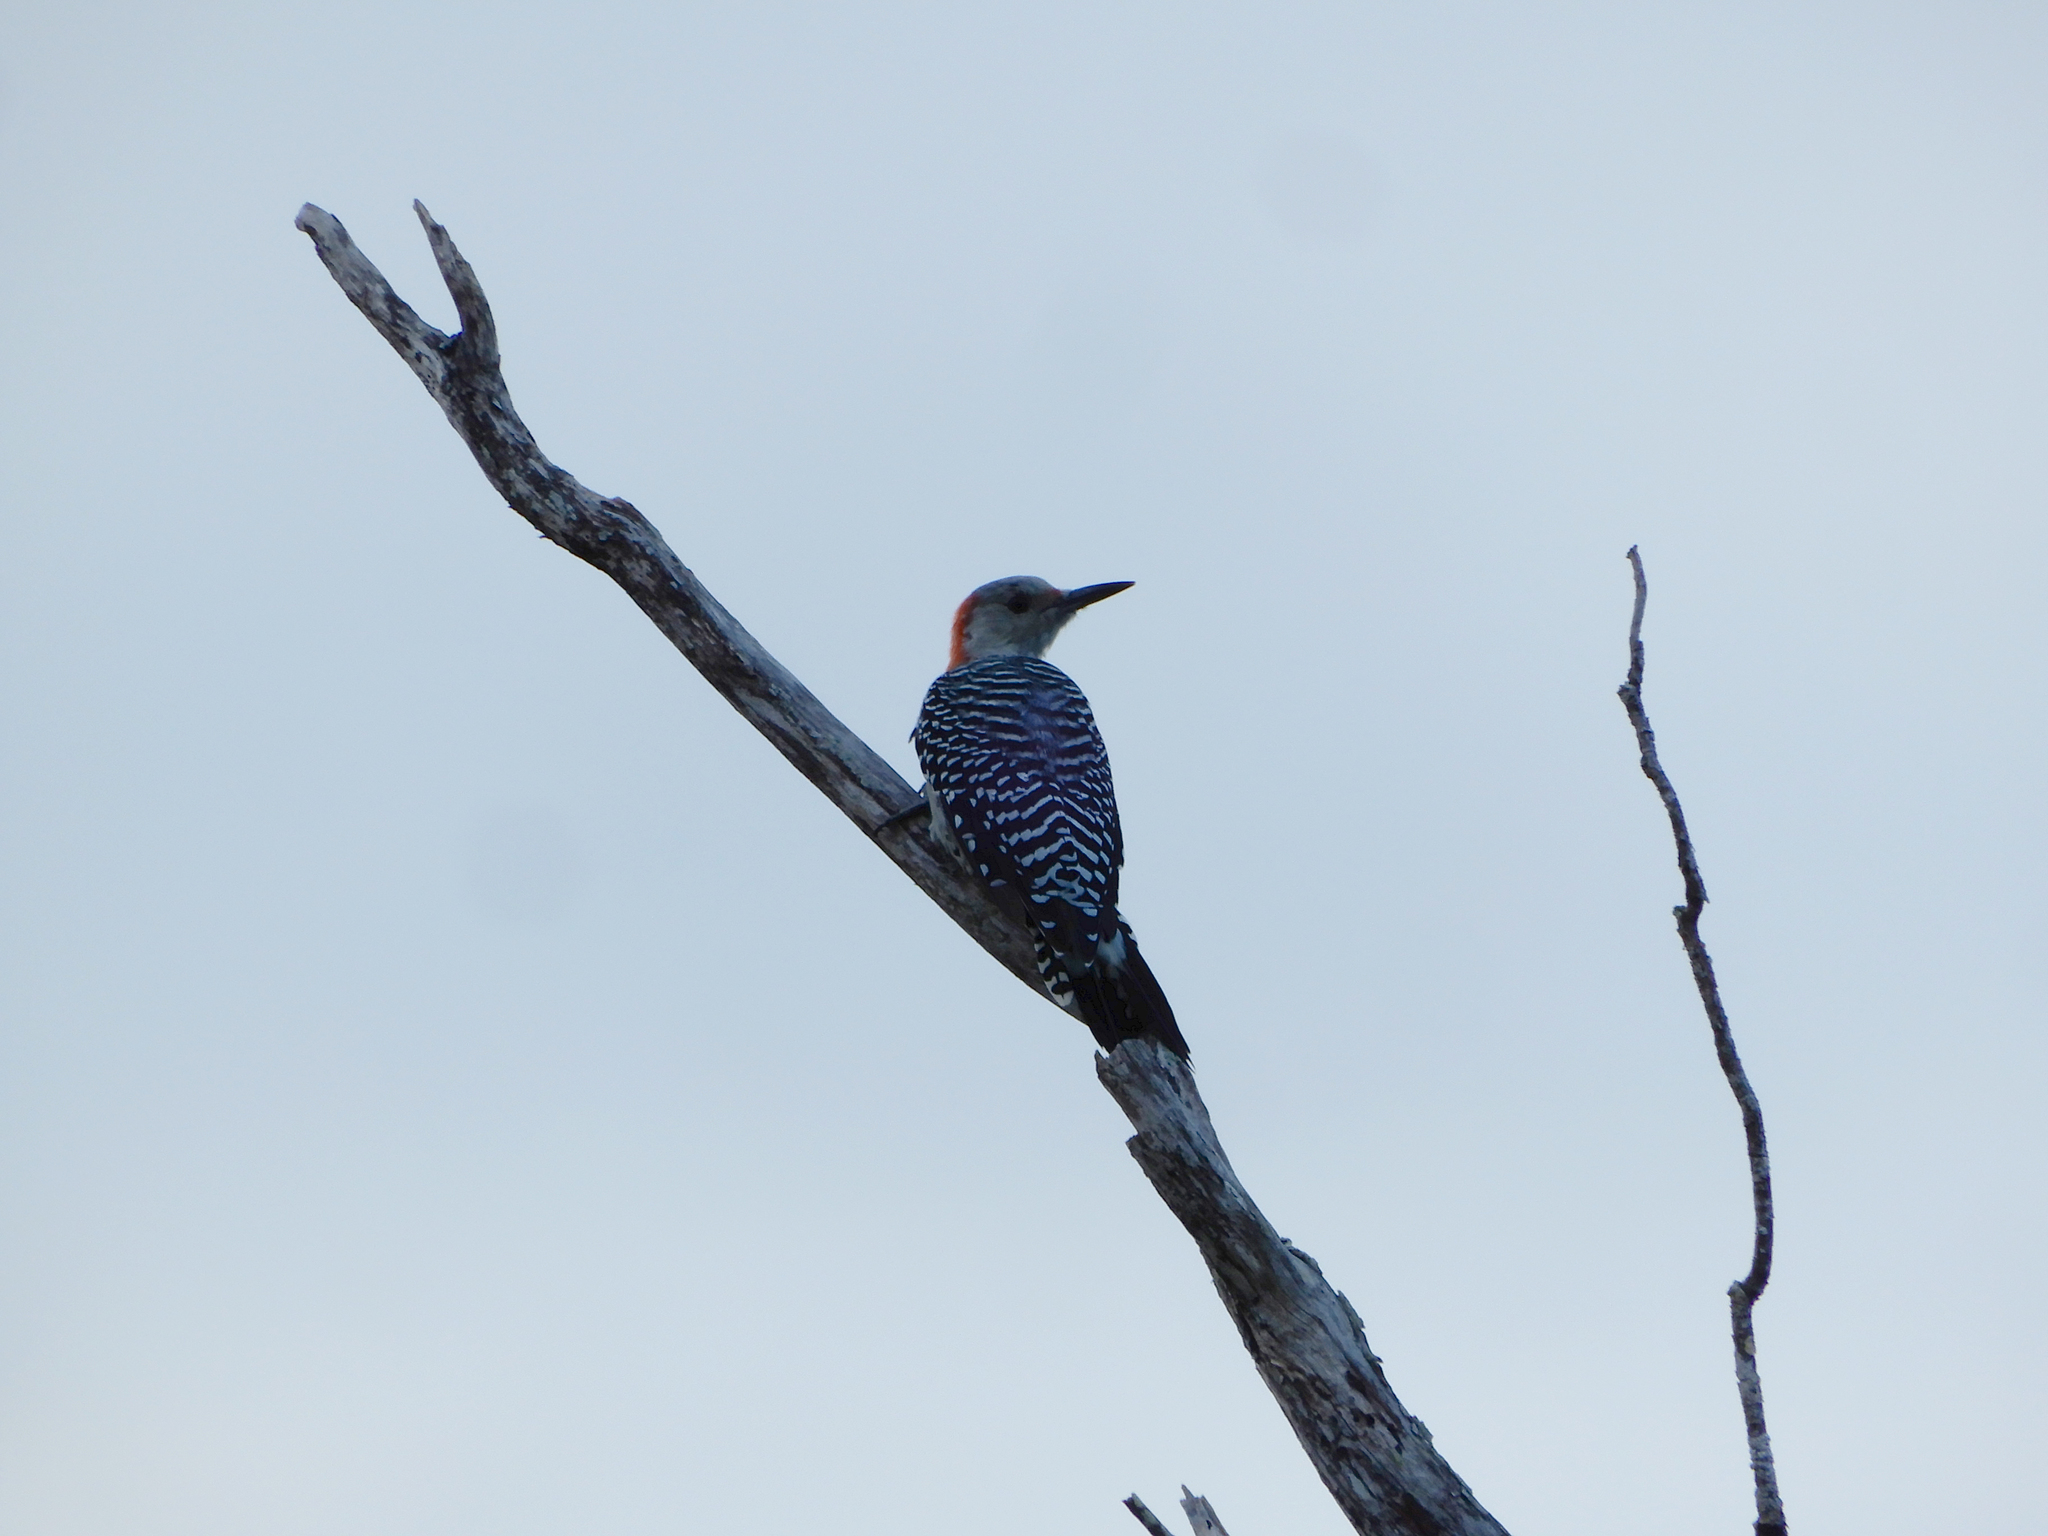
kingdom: Animalia
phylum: Chordata
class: Aves
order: Piciformes
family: Picidae
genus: Melanerpes
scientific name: Melanerpes carolinus
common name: Red-bellied woodpecker
